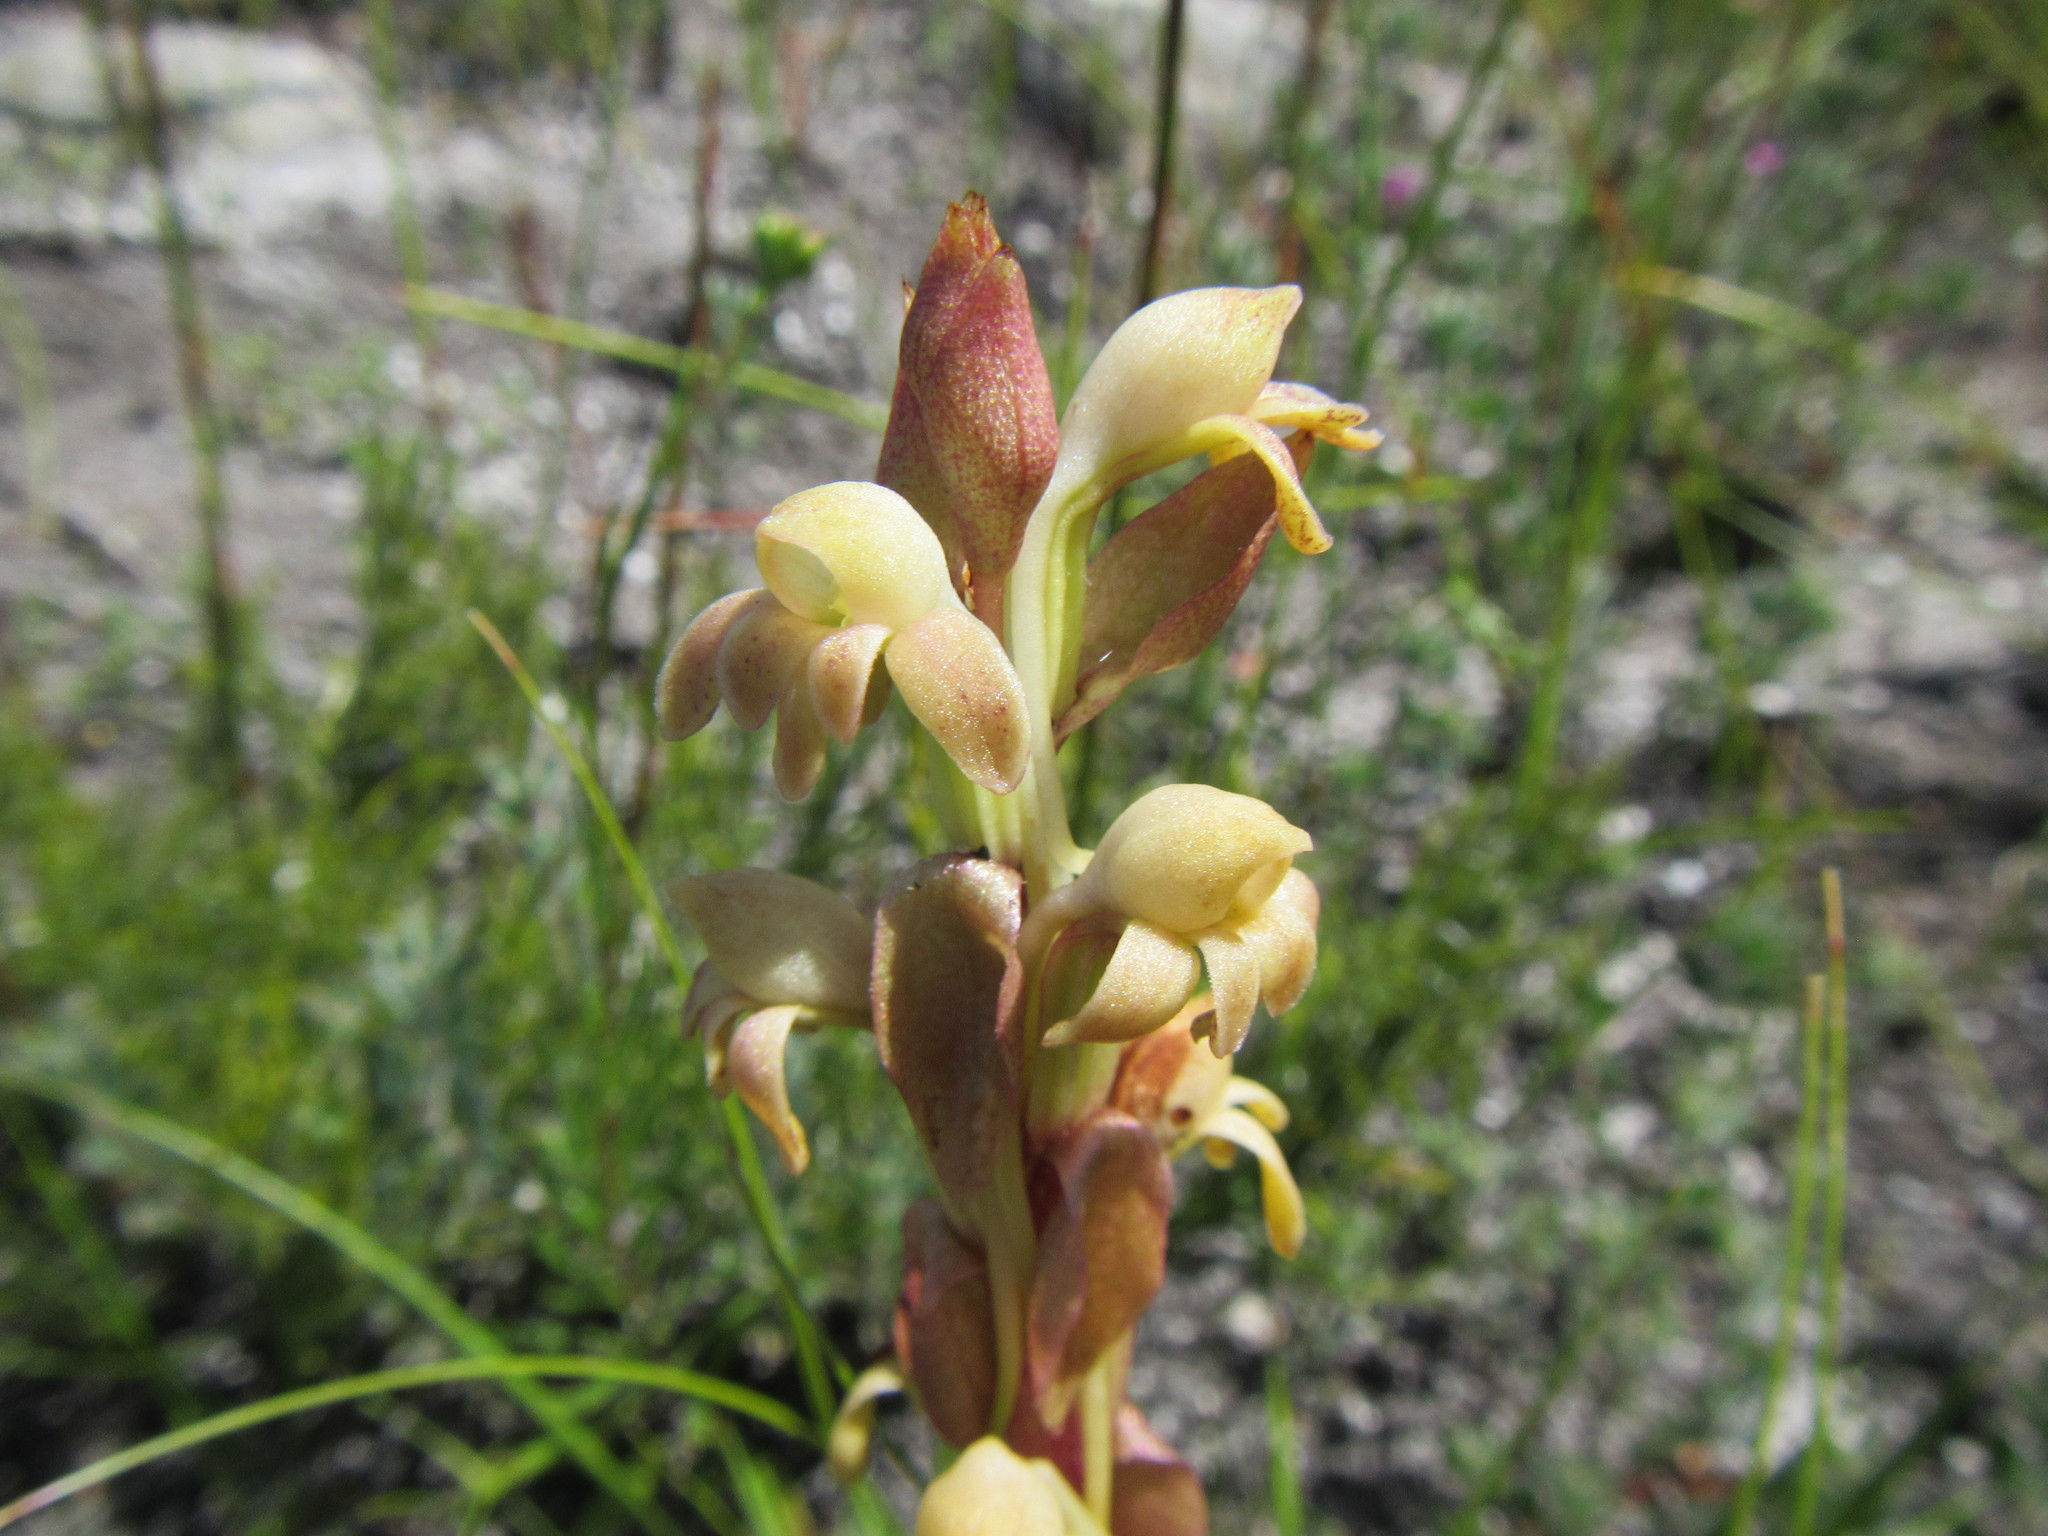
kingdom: Plantae
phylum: Tracheophyta
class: Liliopsida
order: Asparagales
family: Orchidaceae
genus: Satyrium
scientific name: Satyrium bicorne
